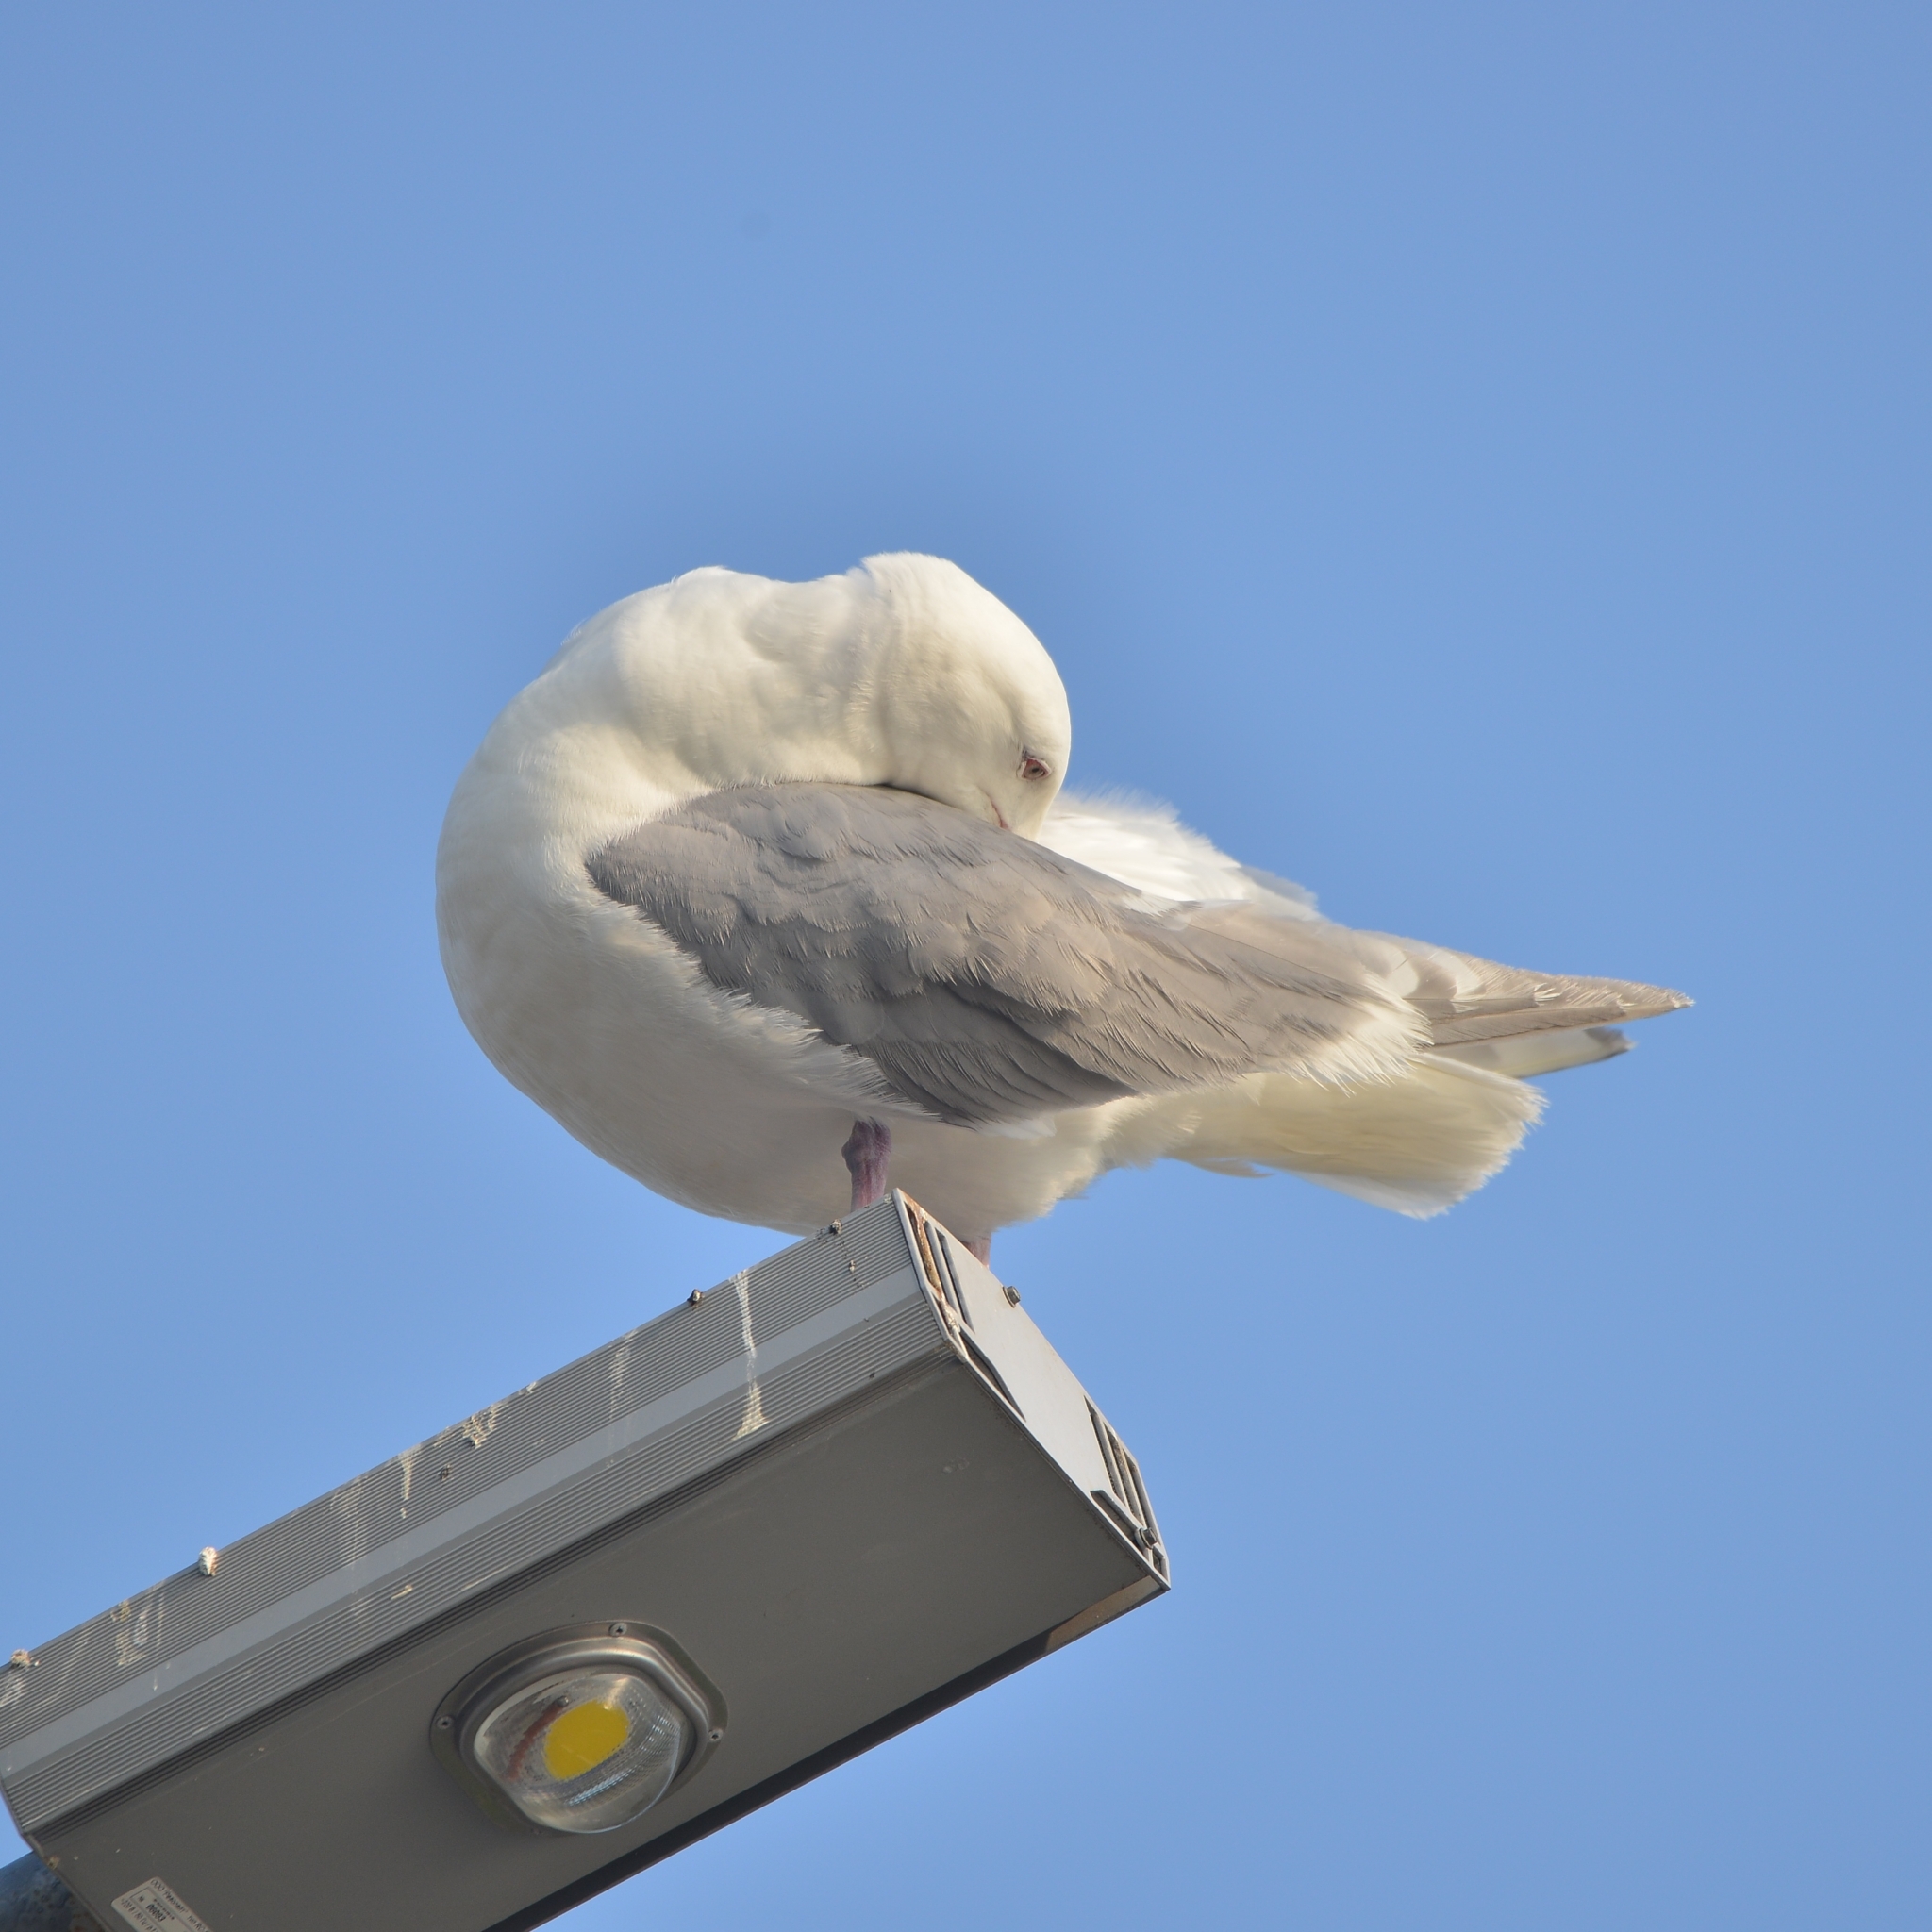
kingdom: Animalia
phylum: Chordata
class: Aves
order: Charadriiformes
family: Laridae
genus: Larus
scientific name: Larus glaucescens
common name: Glaucous-winged gull
